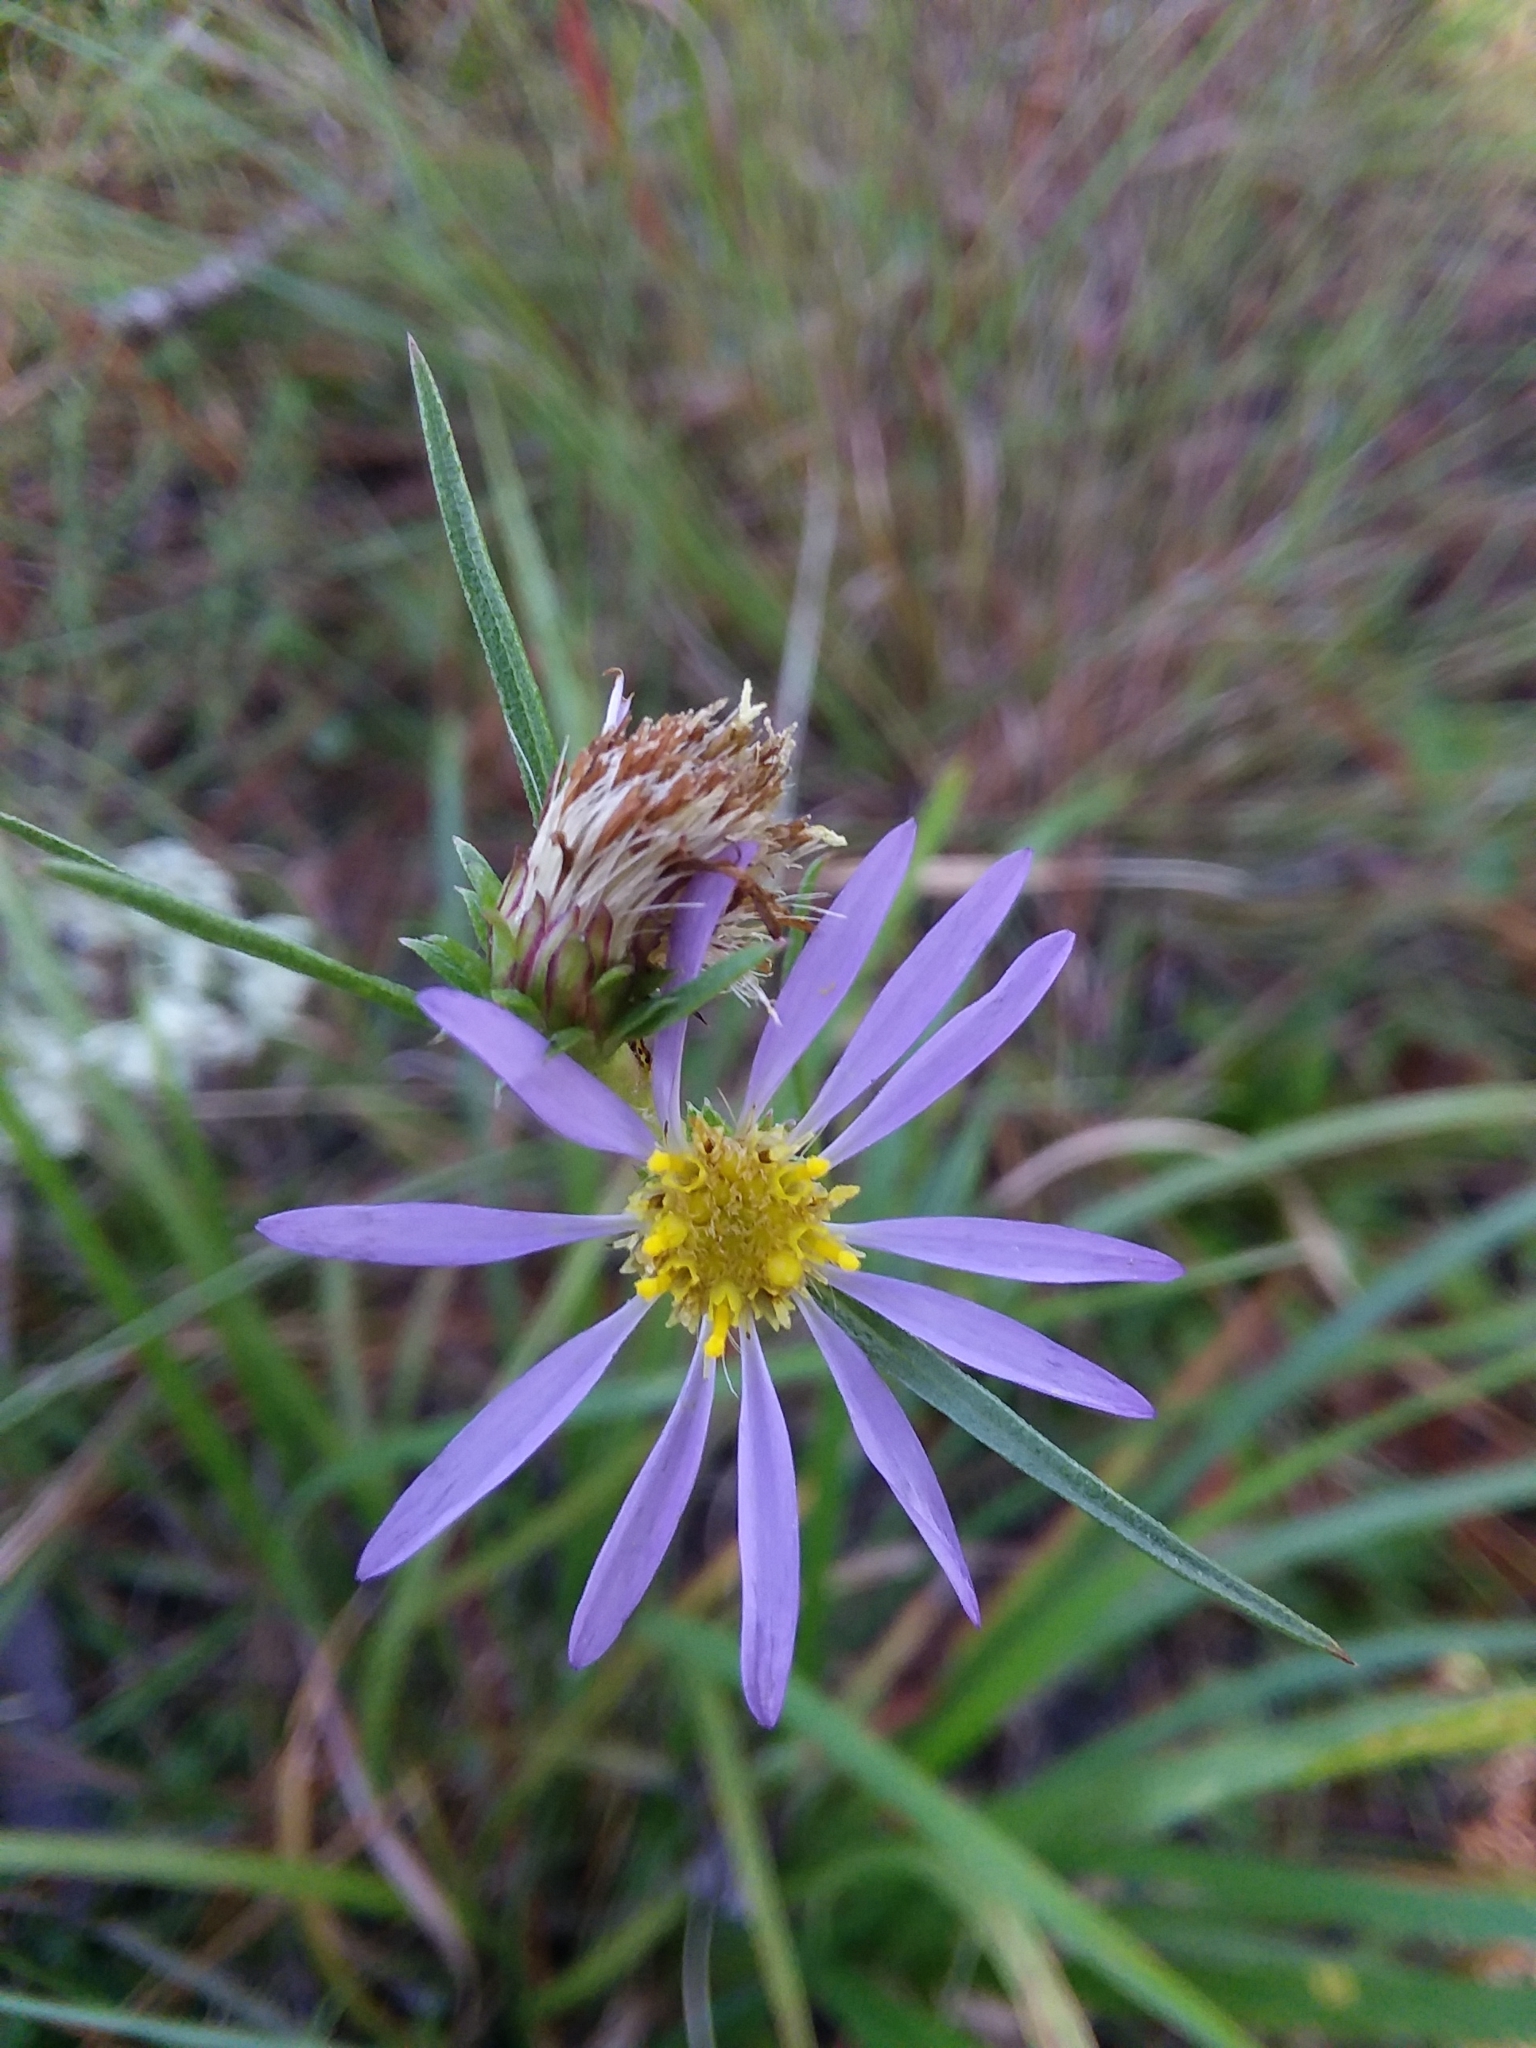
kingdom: Plantae
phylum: Tracheophyta
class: Magnoliopsida
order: Asterales
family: Asteraceae
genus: Eurybia
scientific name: Eurybia hemispherica
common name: Showy aster
